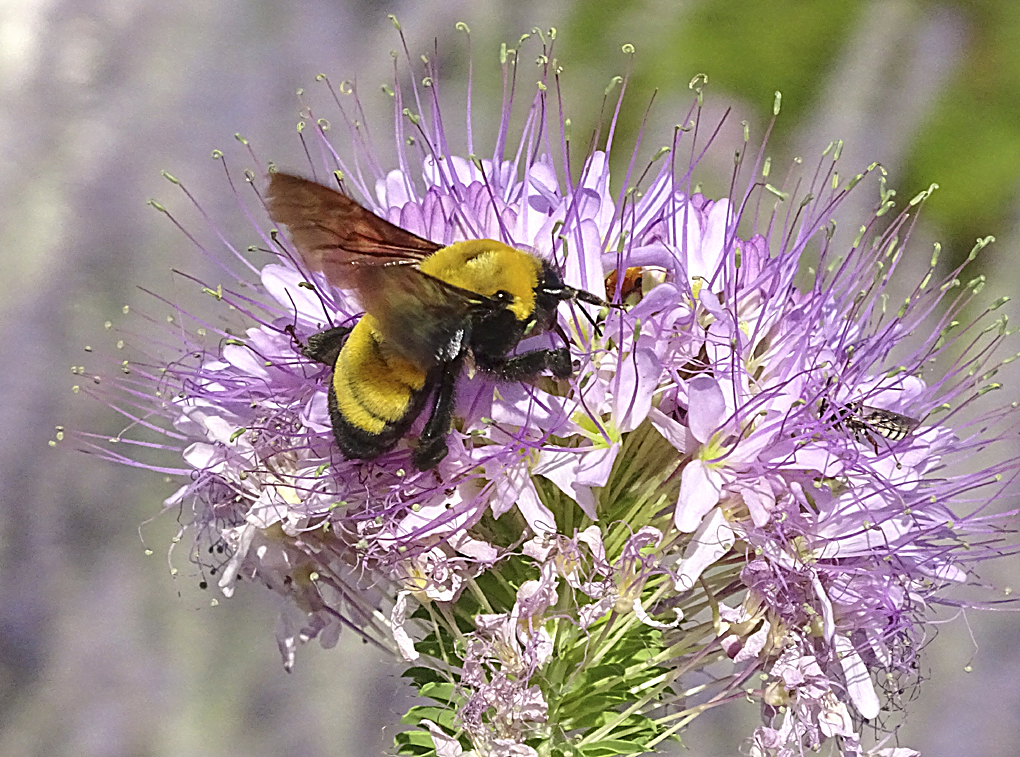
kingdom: Animalia
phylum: Arthropoda
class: Insecta
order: Hymenoptera
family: Apidae
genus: Bombus
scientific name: Bombus morrisoni
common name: Morrison bumble bee
